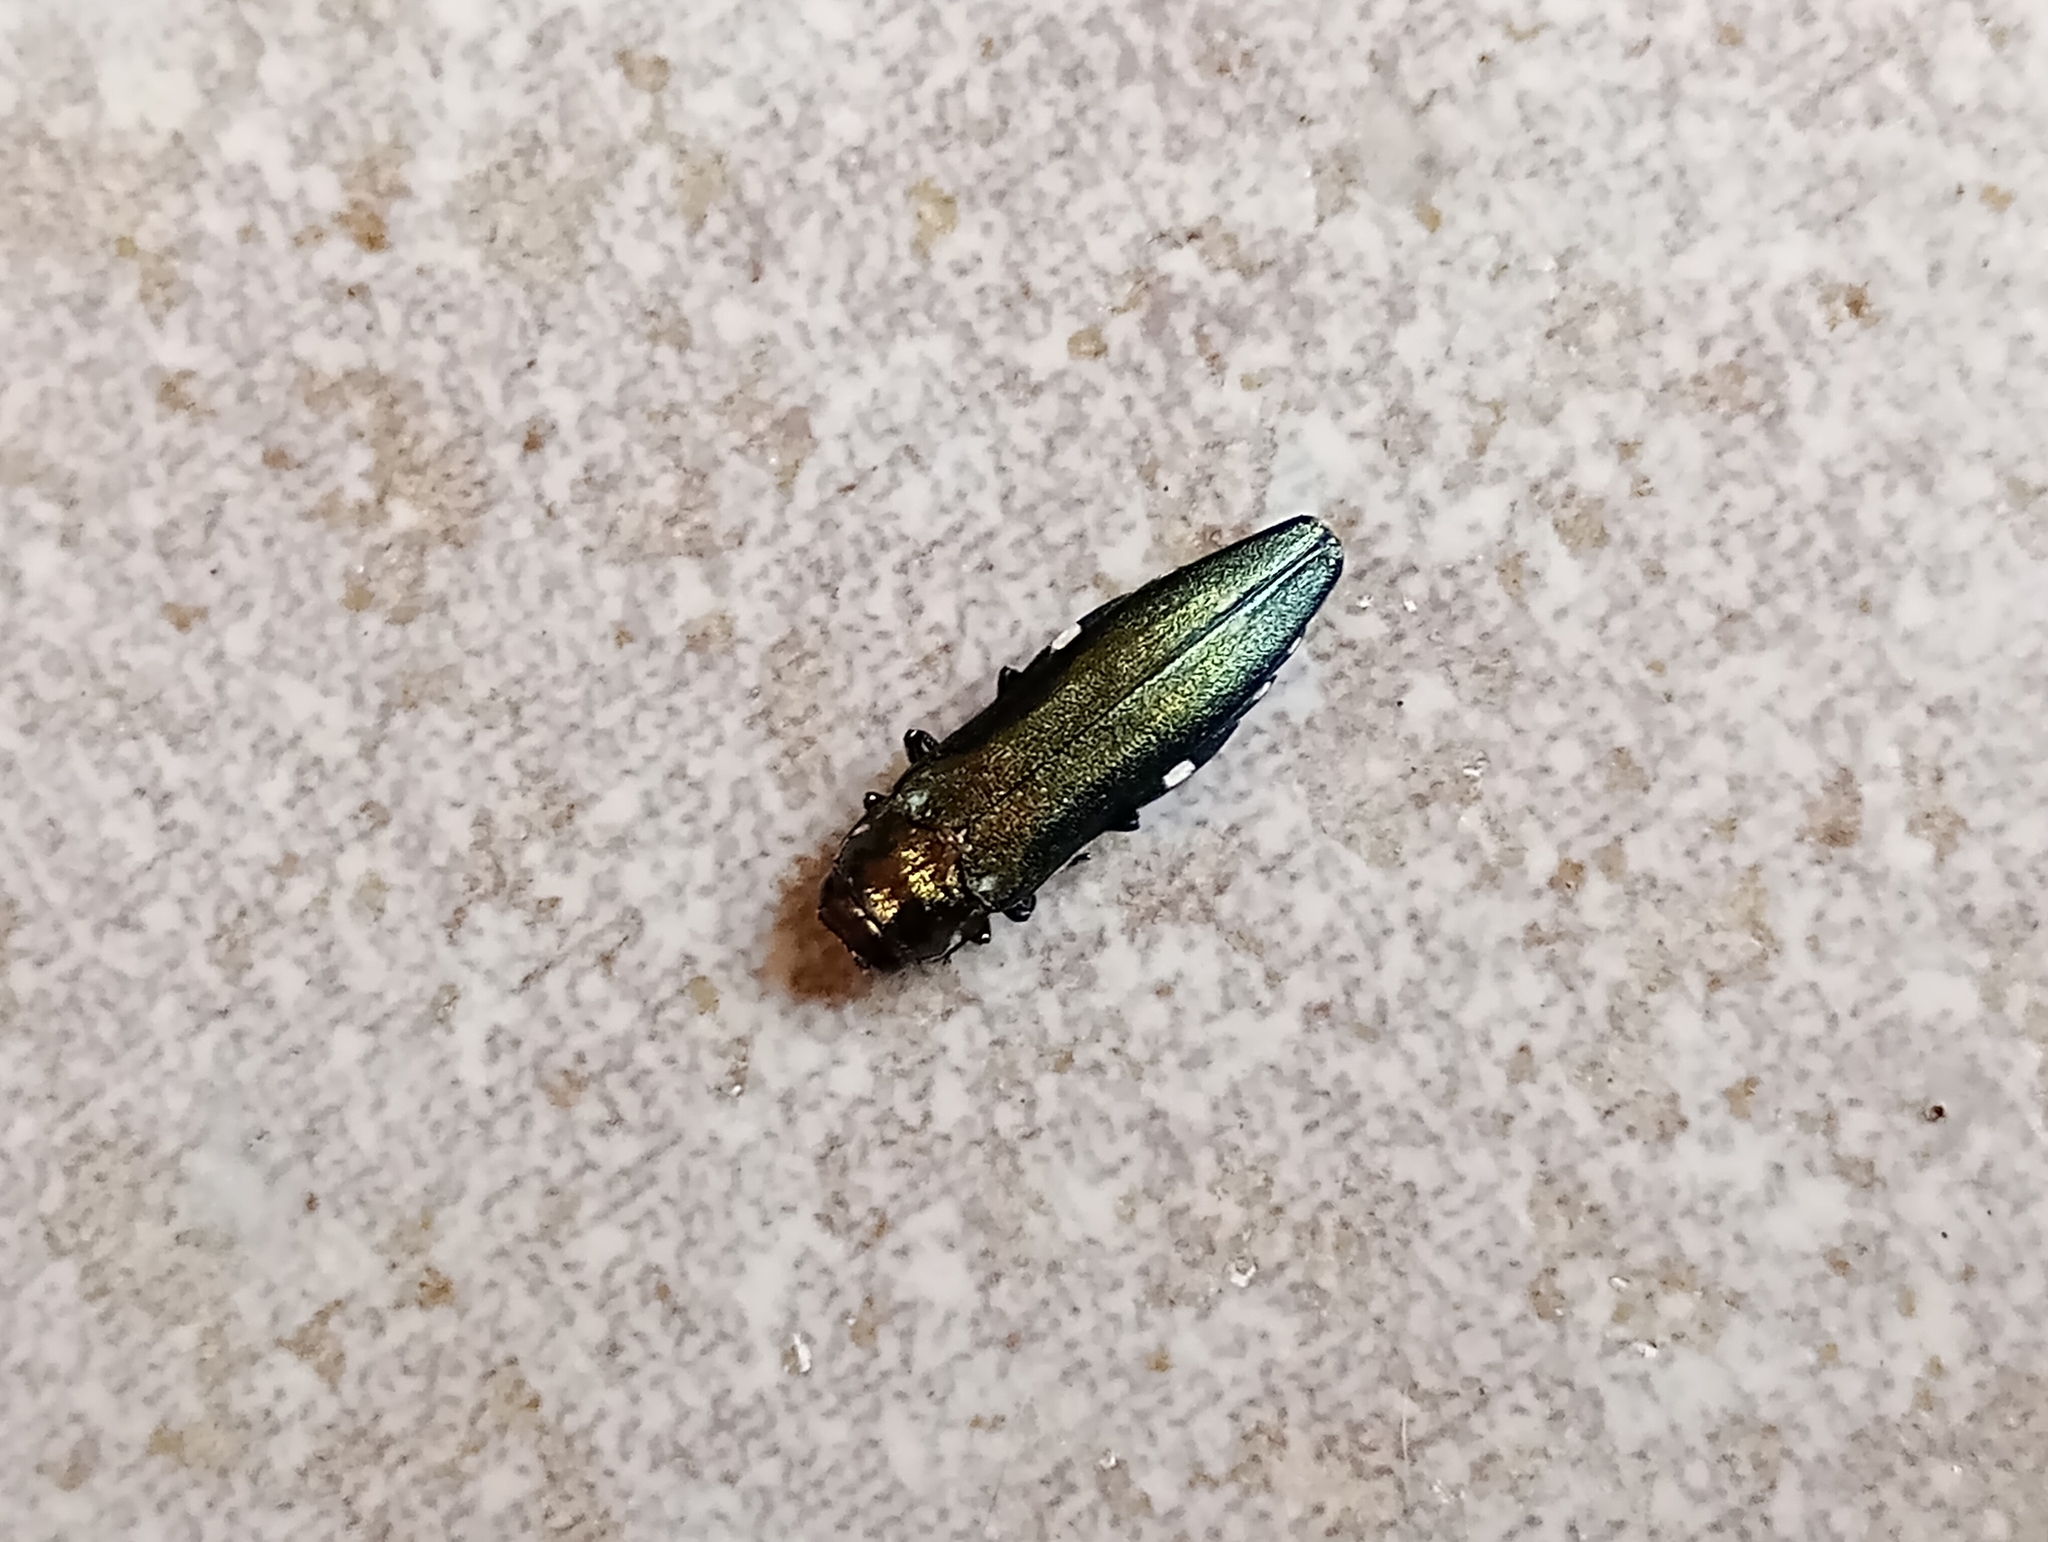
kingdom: Animalia
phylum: Arthropoda
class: Insecta
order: Coleoptera
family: Buprestidae
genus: Agrilus
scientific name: Agrilus biguttatus
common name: Oak jewel beetle
